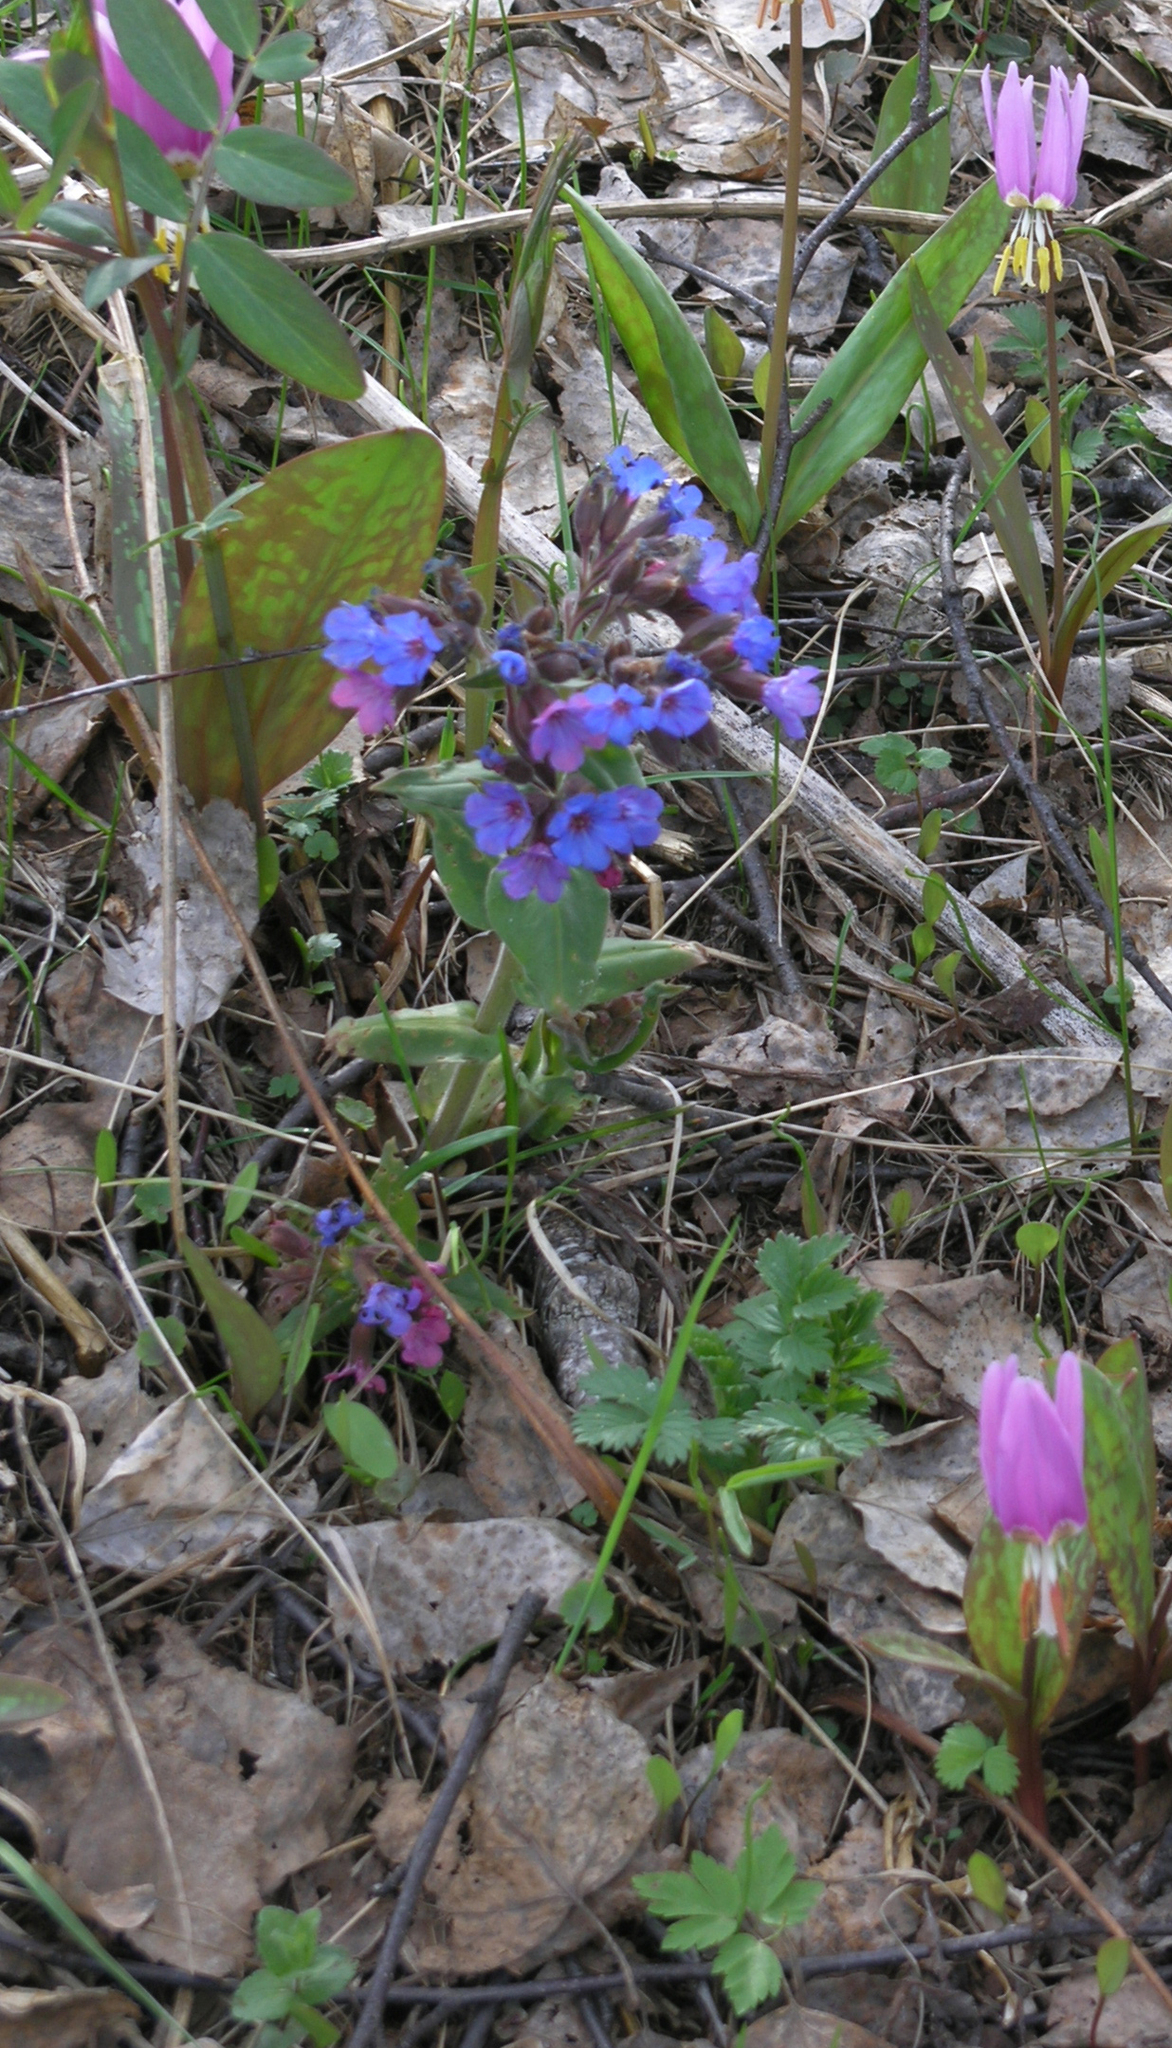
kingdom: Plantae
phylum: Tracheophyta
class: Magnoliopsida
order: Boraginales
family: Boraginaceae
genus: Pulmonaria
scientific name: Pulmonaria mollis
